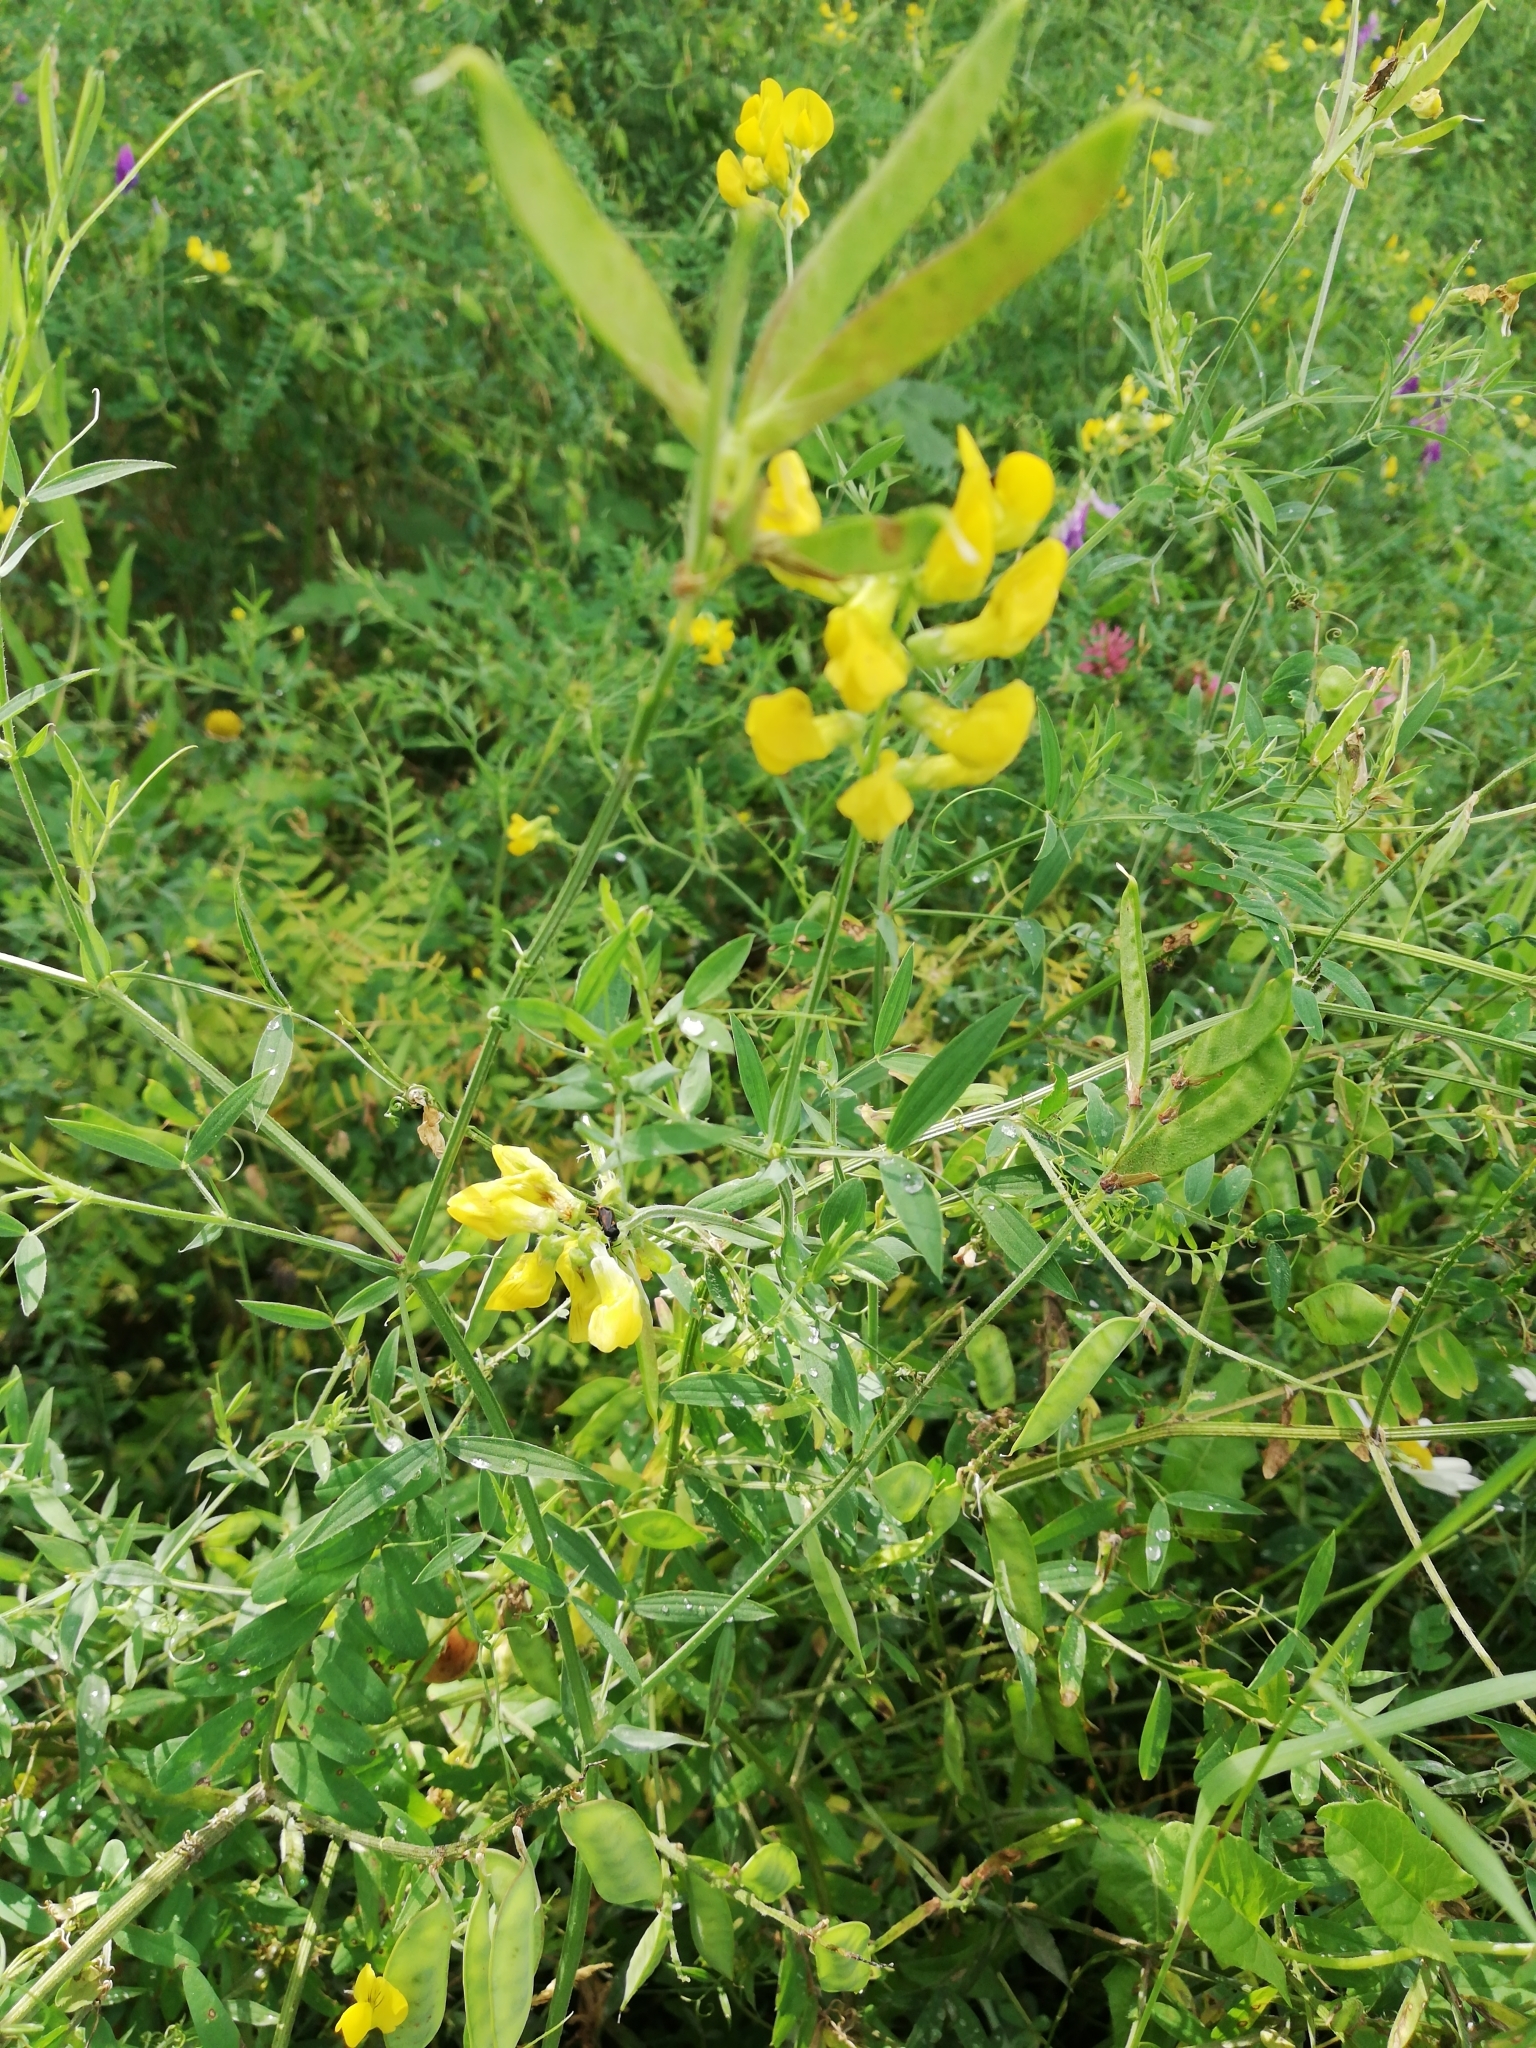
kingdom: Plantae
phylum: Tracheophyta
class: Magnoliopsida
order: Fabales
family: Fabaceae
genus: Lathyrus
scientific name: Lathyrus pratensis
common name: Meadow vetchling
